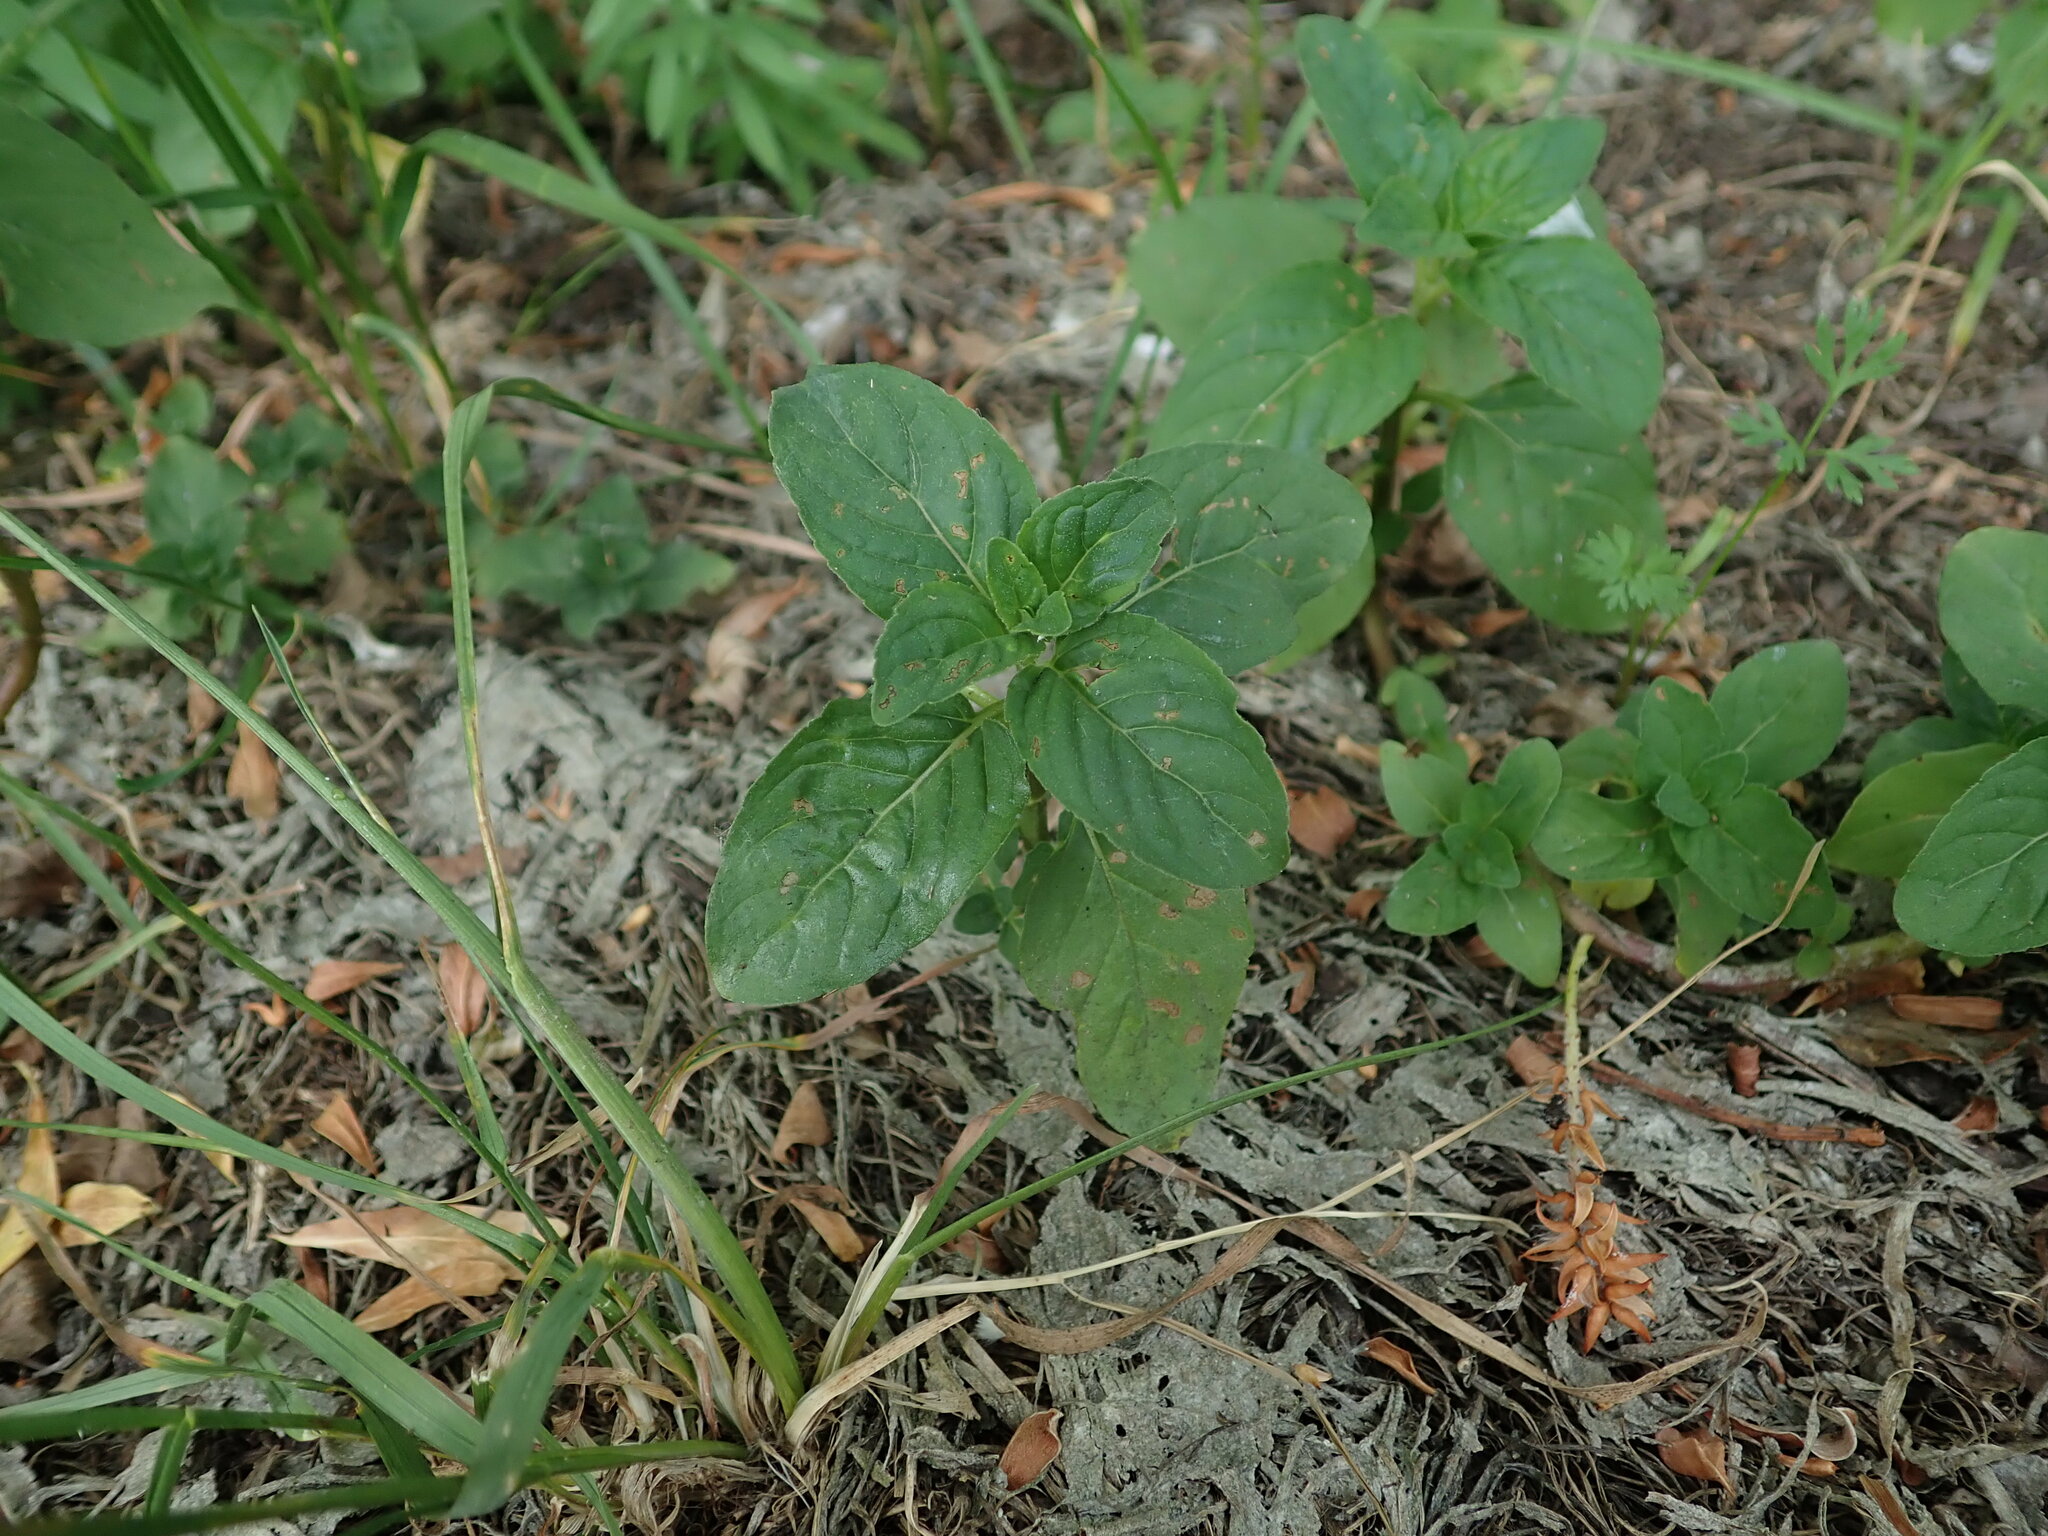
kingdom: Plantae
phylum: Tracheophyta
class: Magnoliopsida
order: Lamiales
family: Lamiaceae
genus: Mentha
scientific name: Mentha aquatica
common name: Water mint
